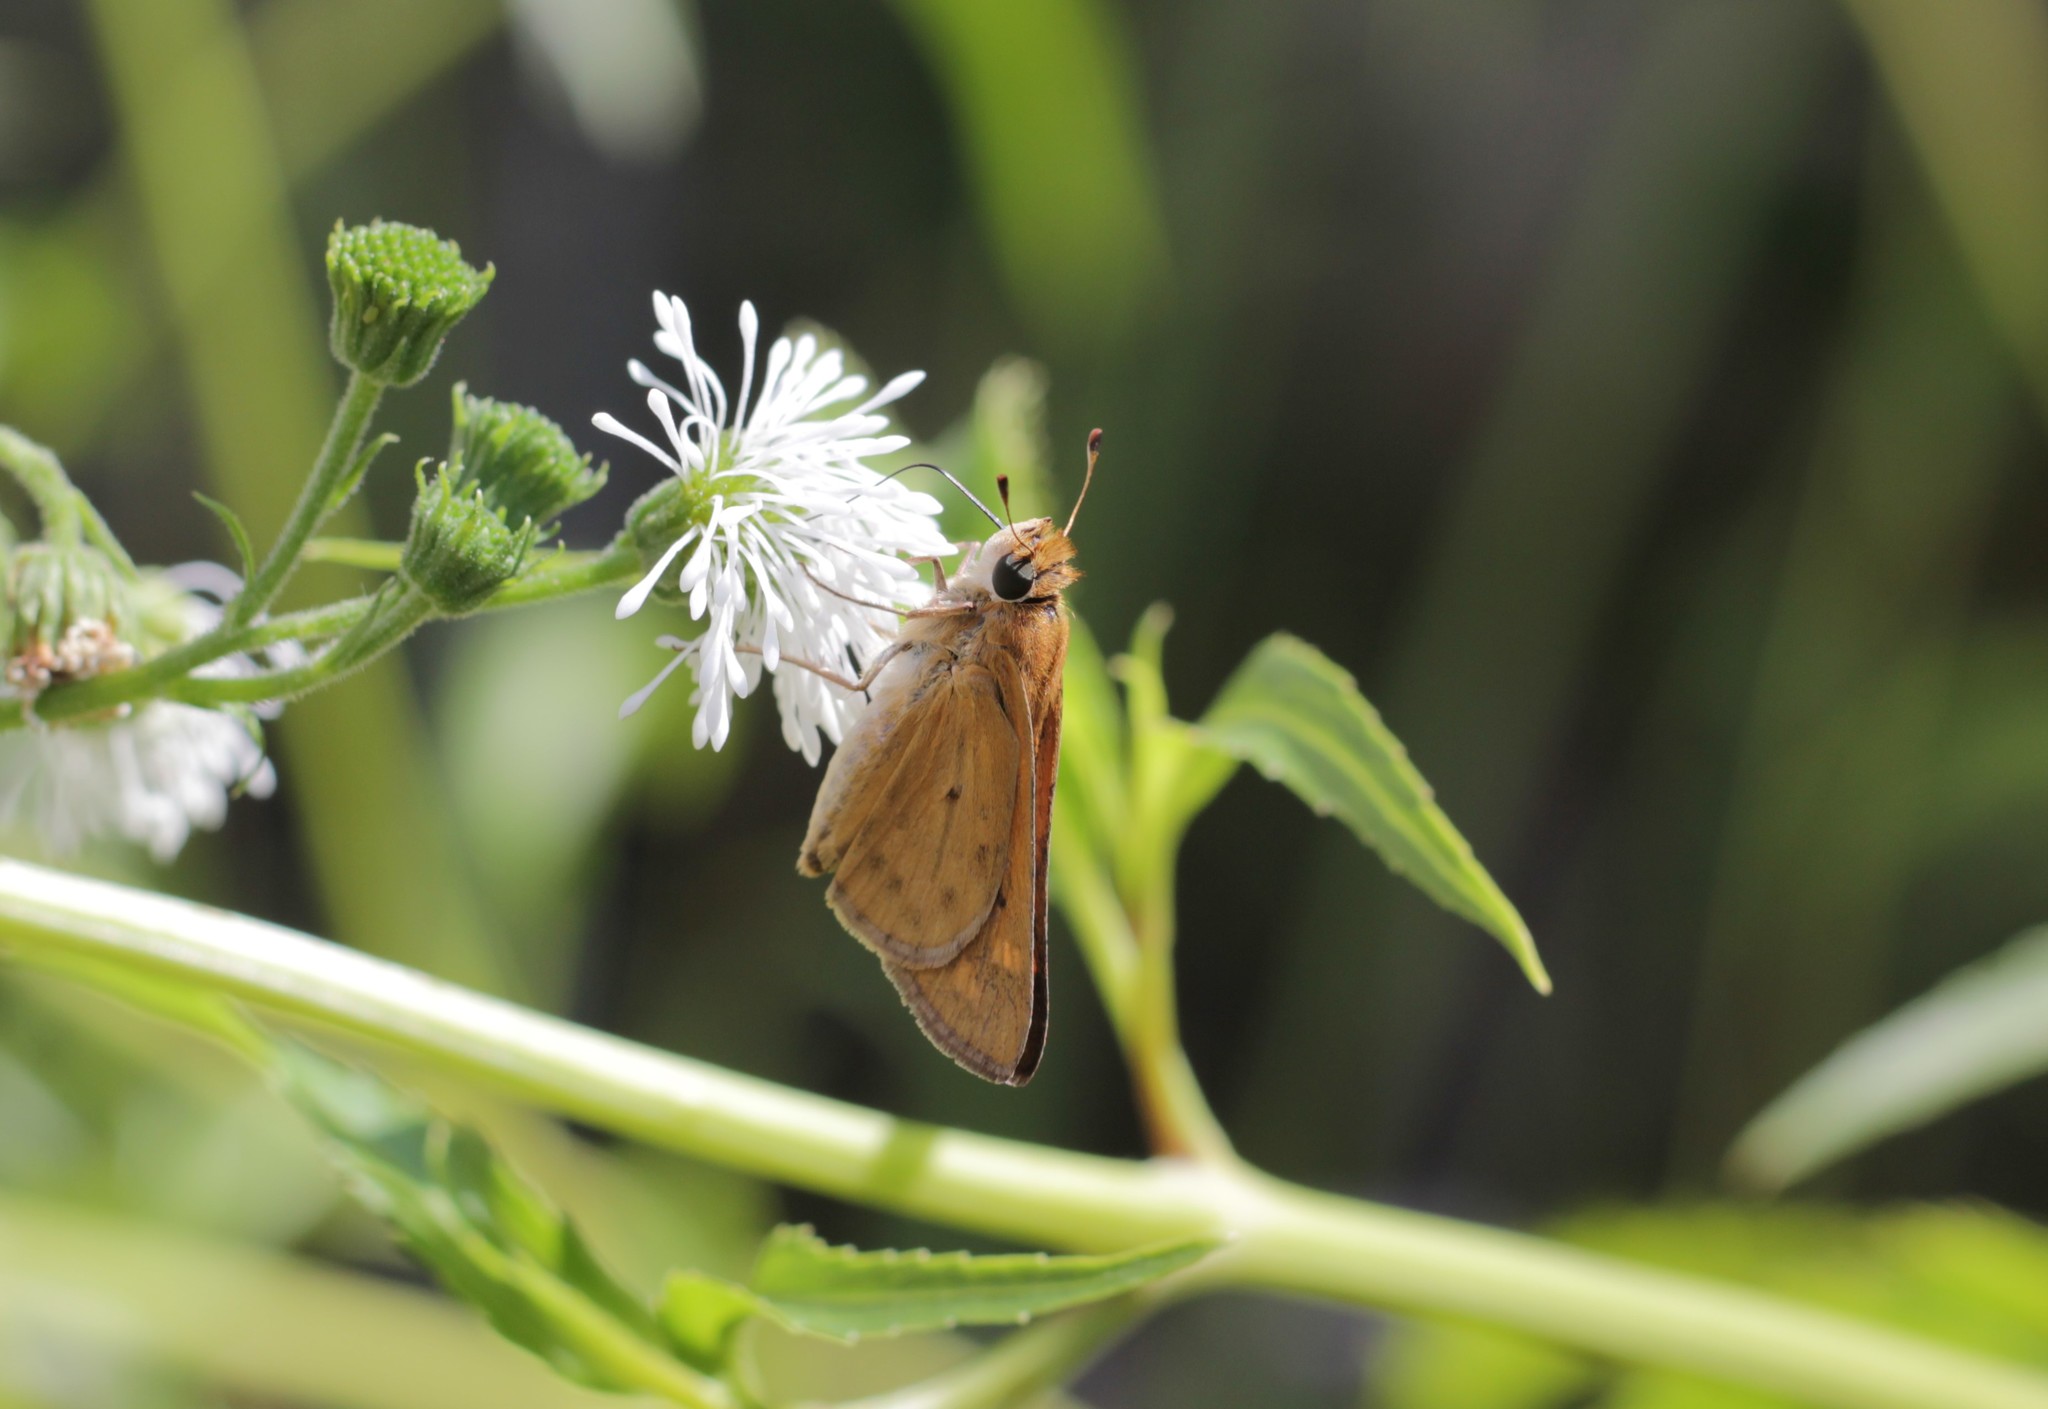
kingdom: Animalia
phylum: Arthropoda
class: Insecta
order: Lepidoptera
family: Hesperiidae
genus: Hylephila
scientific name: Hylephila phyleus
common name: Fiery skipper
